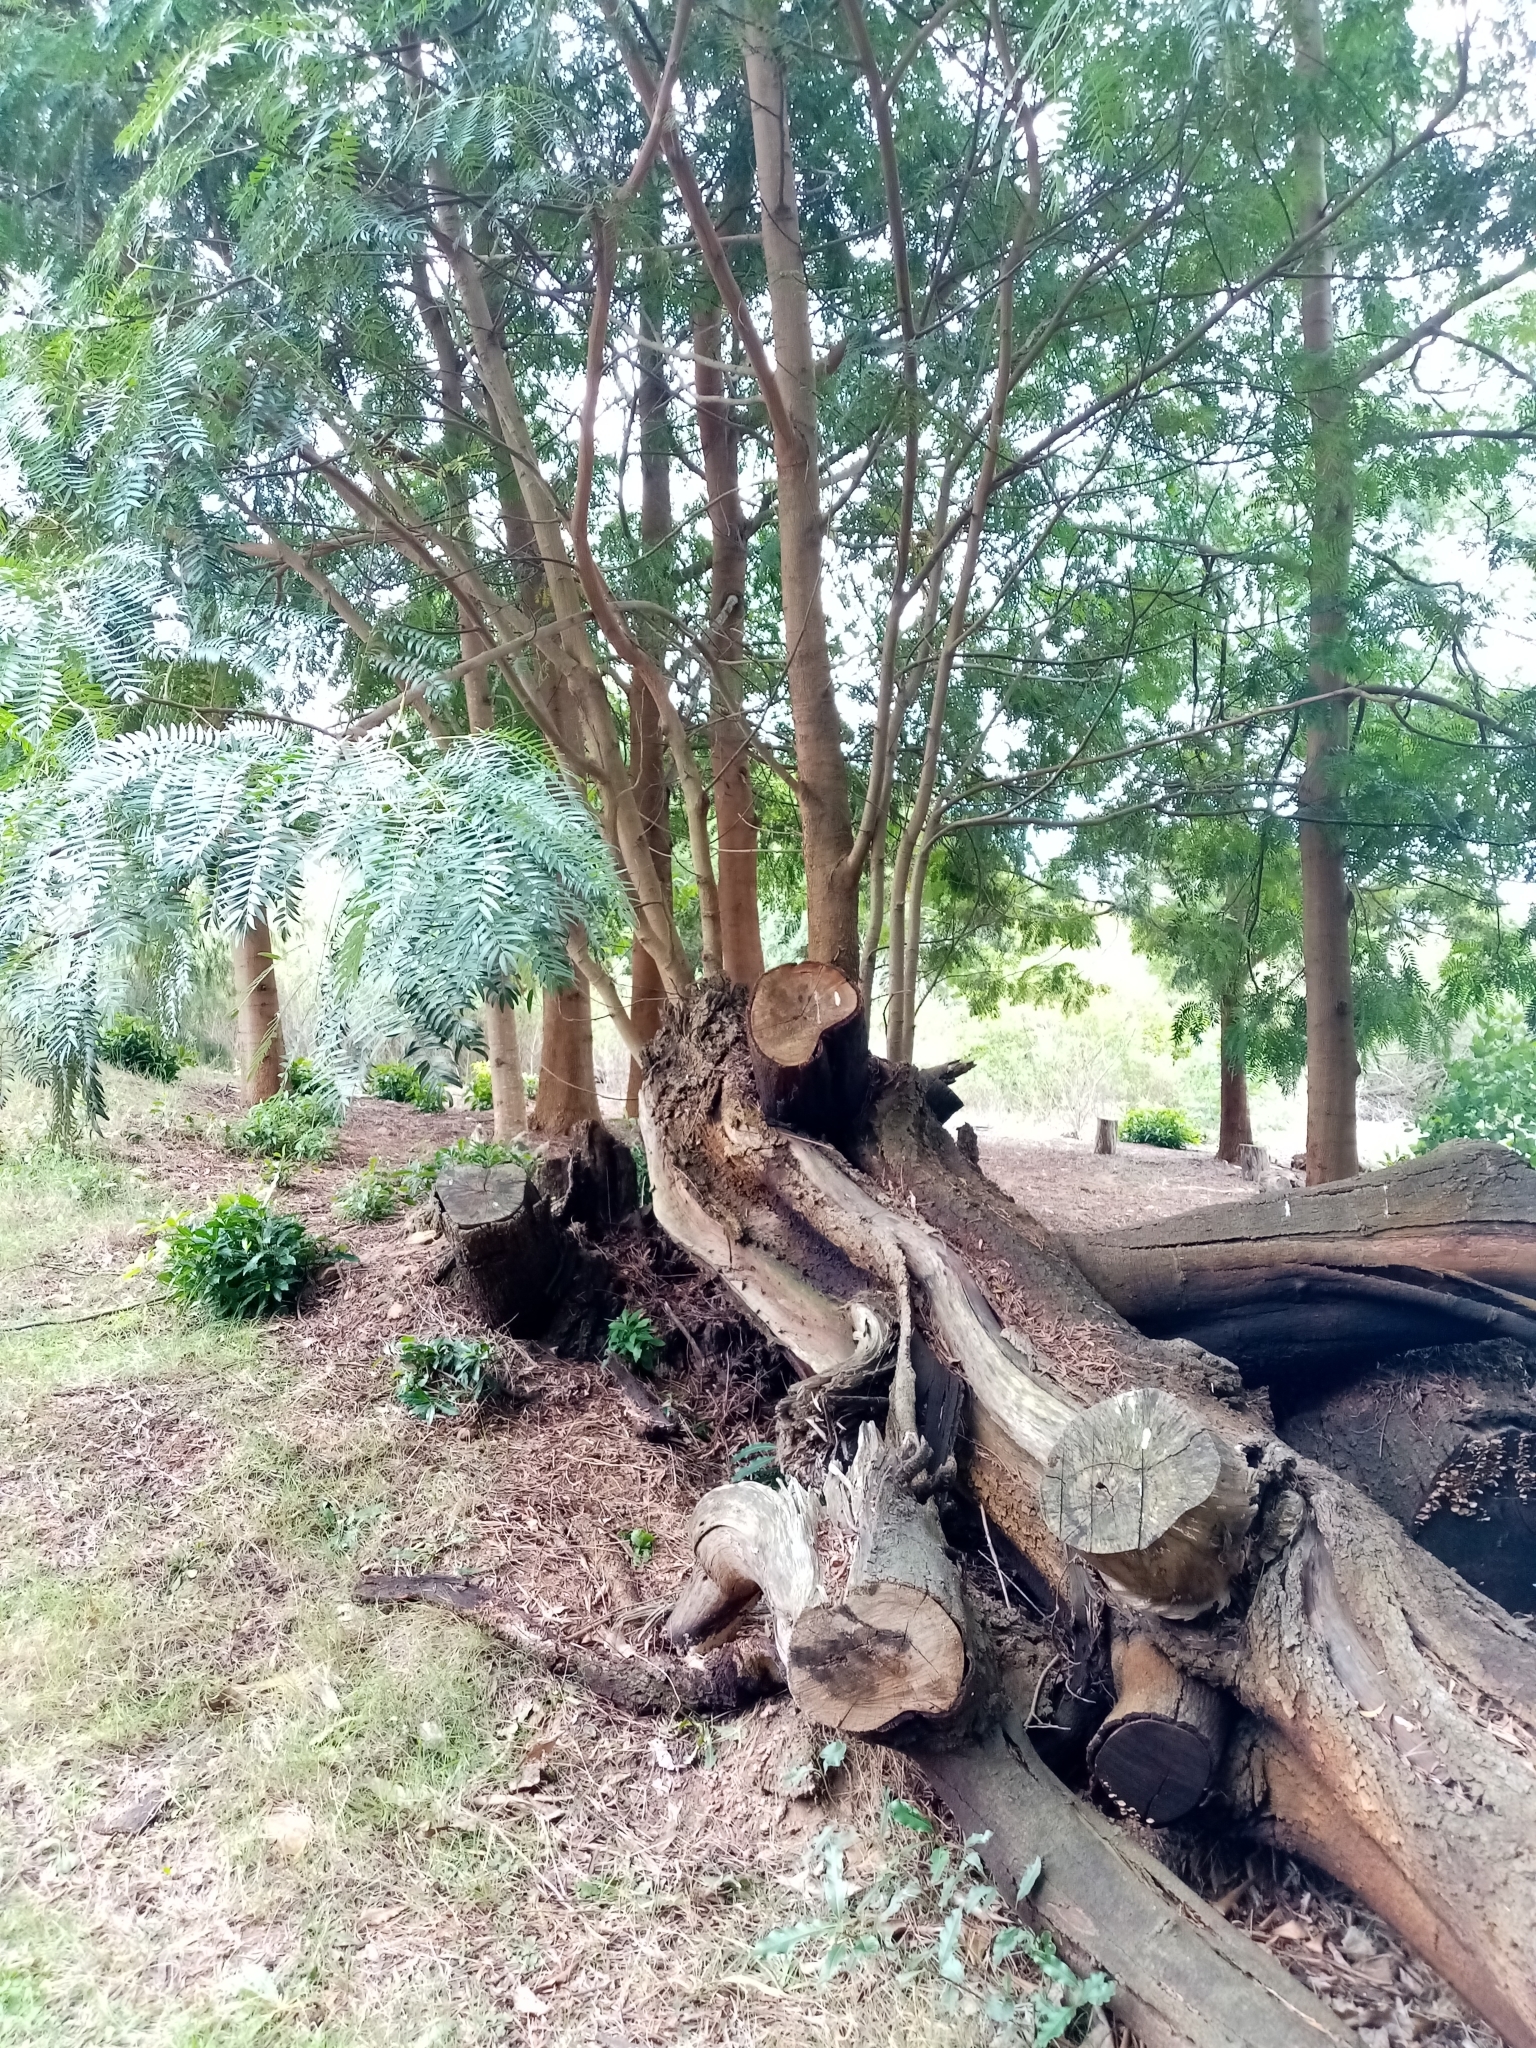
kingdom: Plantae
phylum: Tracheophyta
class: Magnoliopsida
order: Fabales
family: Fabaceae
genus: Acacia
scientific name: Acacia elata
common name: Cedar wattle
